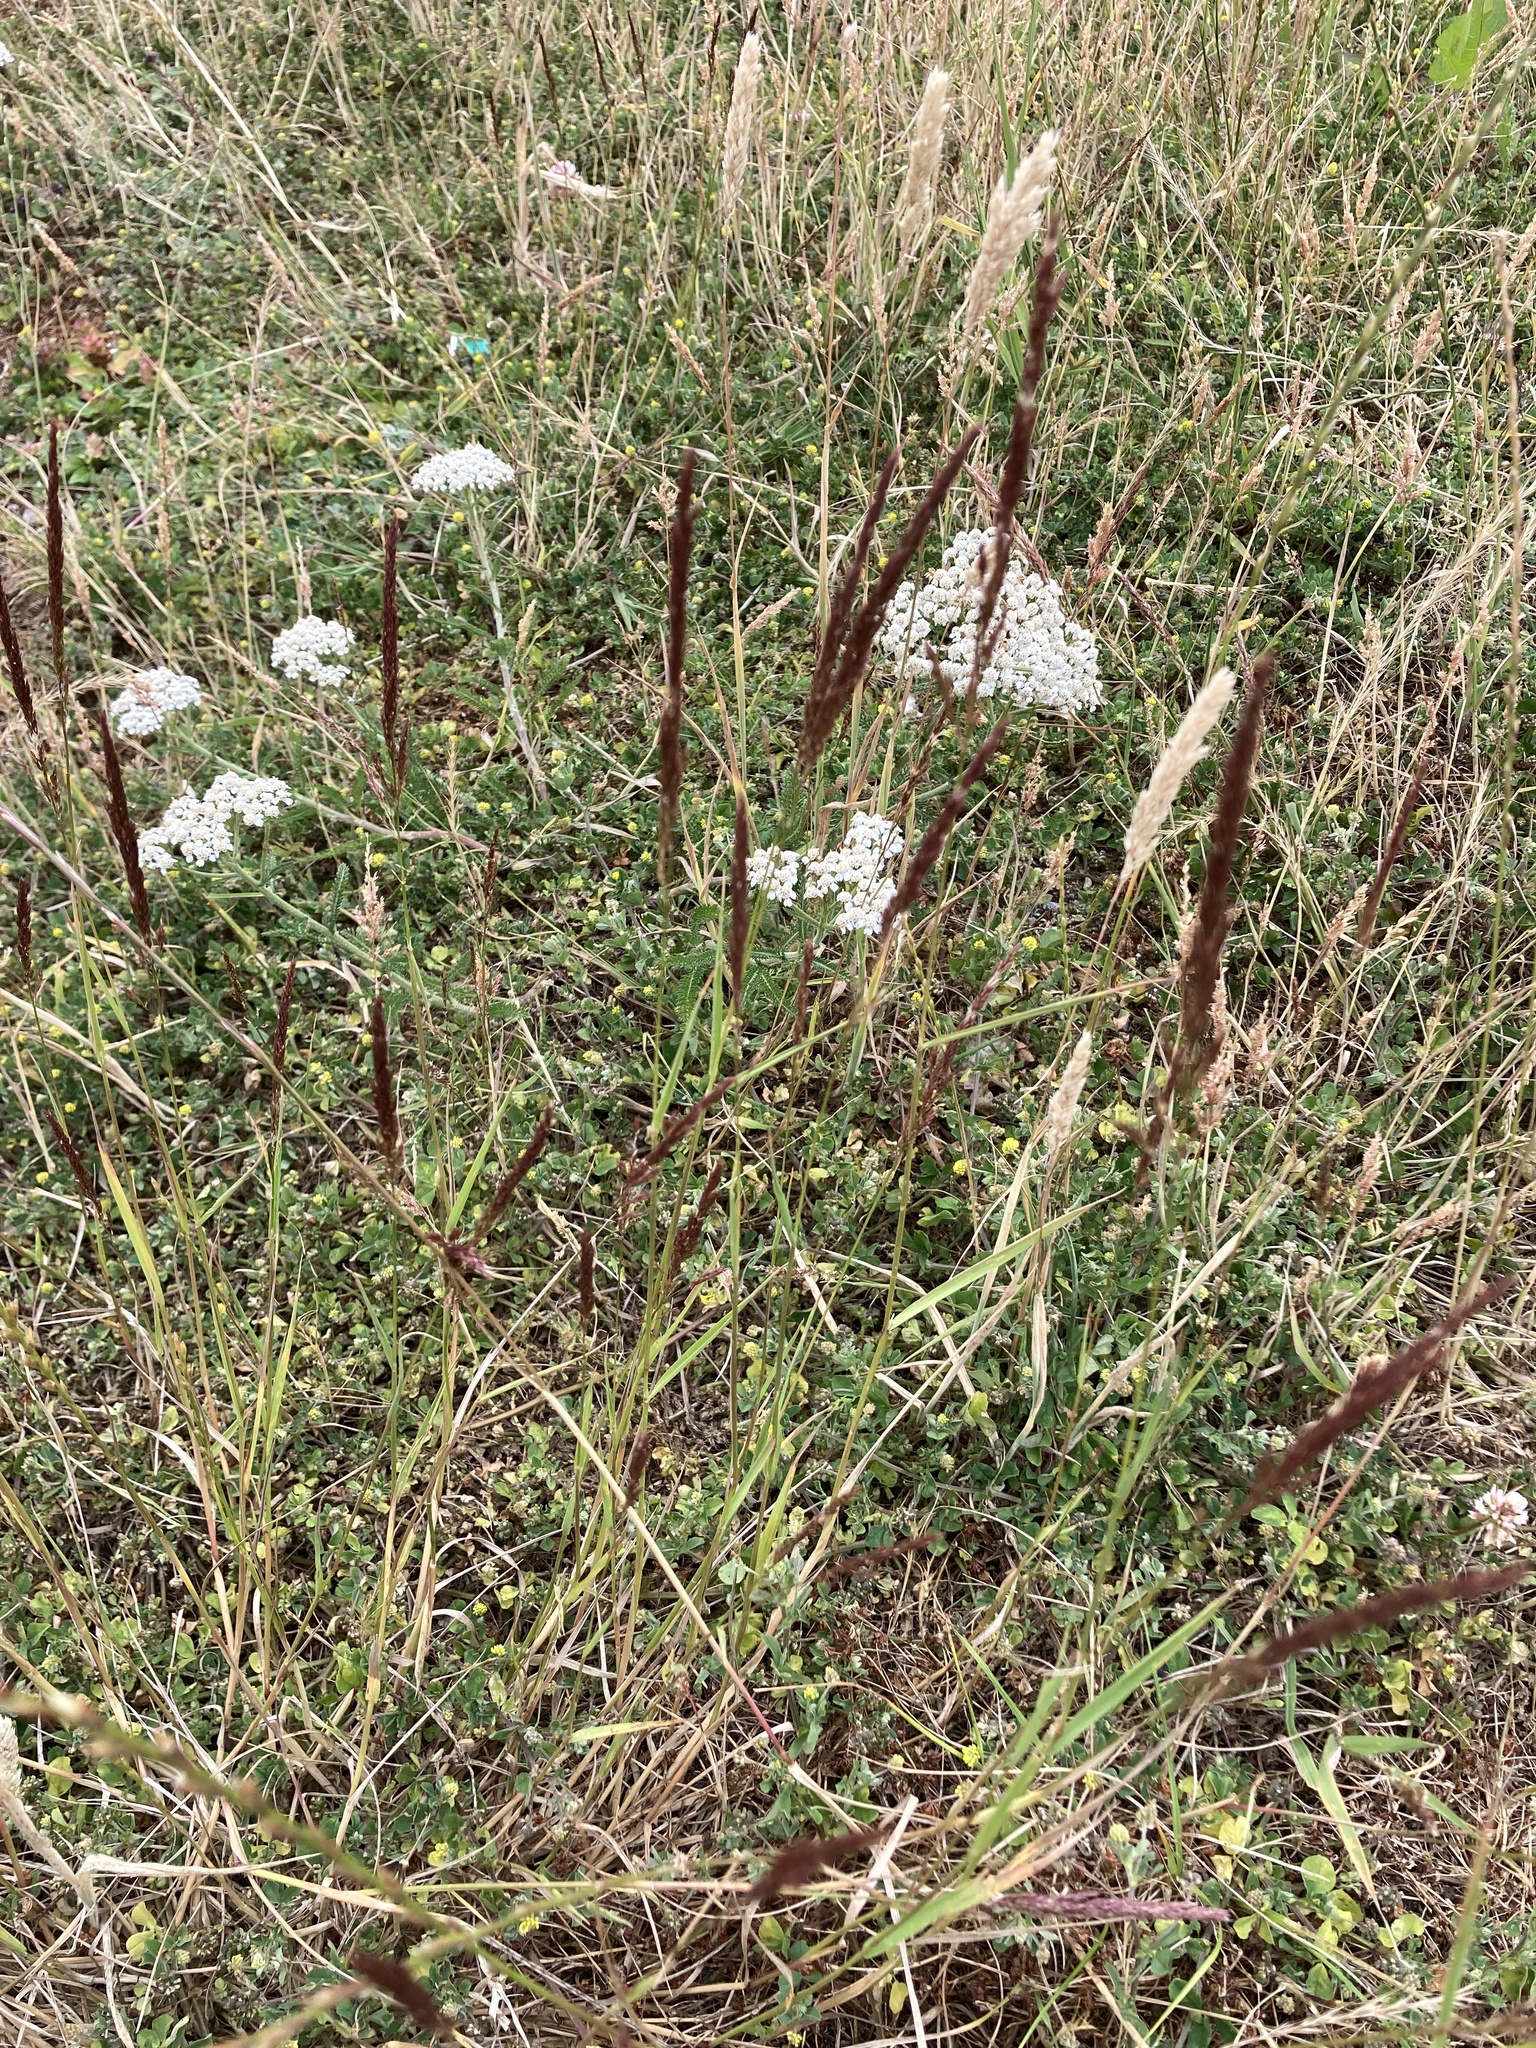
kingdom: Plantae
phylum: Tracheophyta
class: Liliopsida
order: Poales
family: Poaceae
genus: Alopecurus
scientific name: Alopecurus myosuroides
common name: Black-grass
